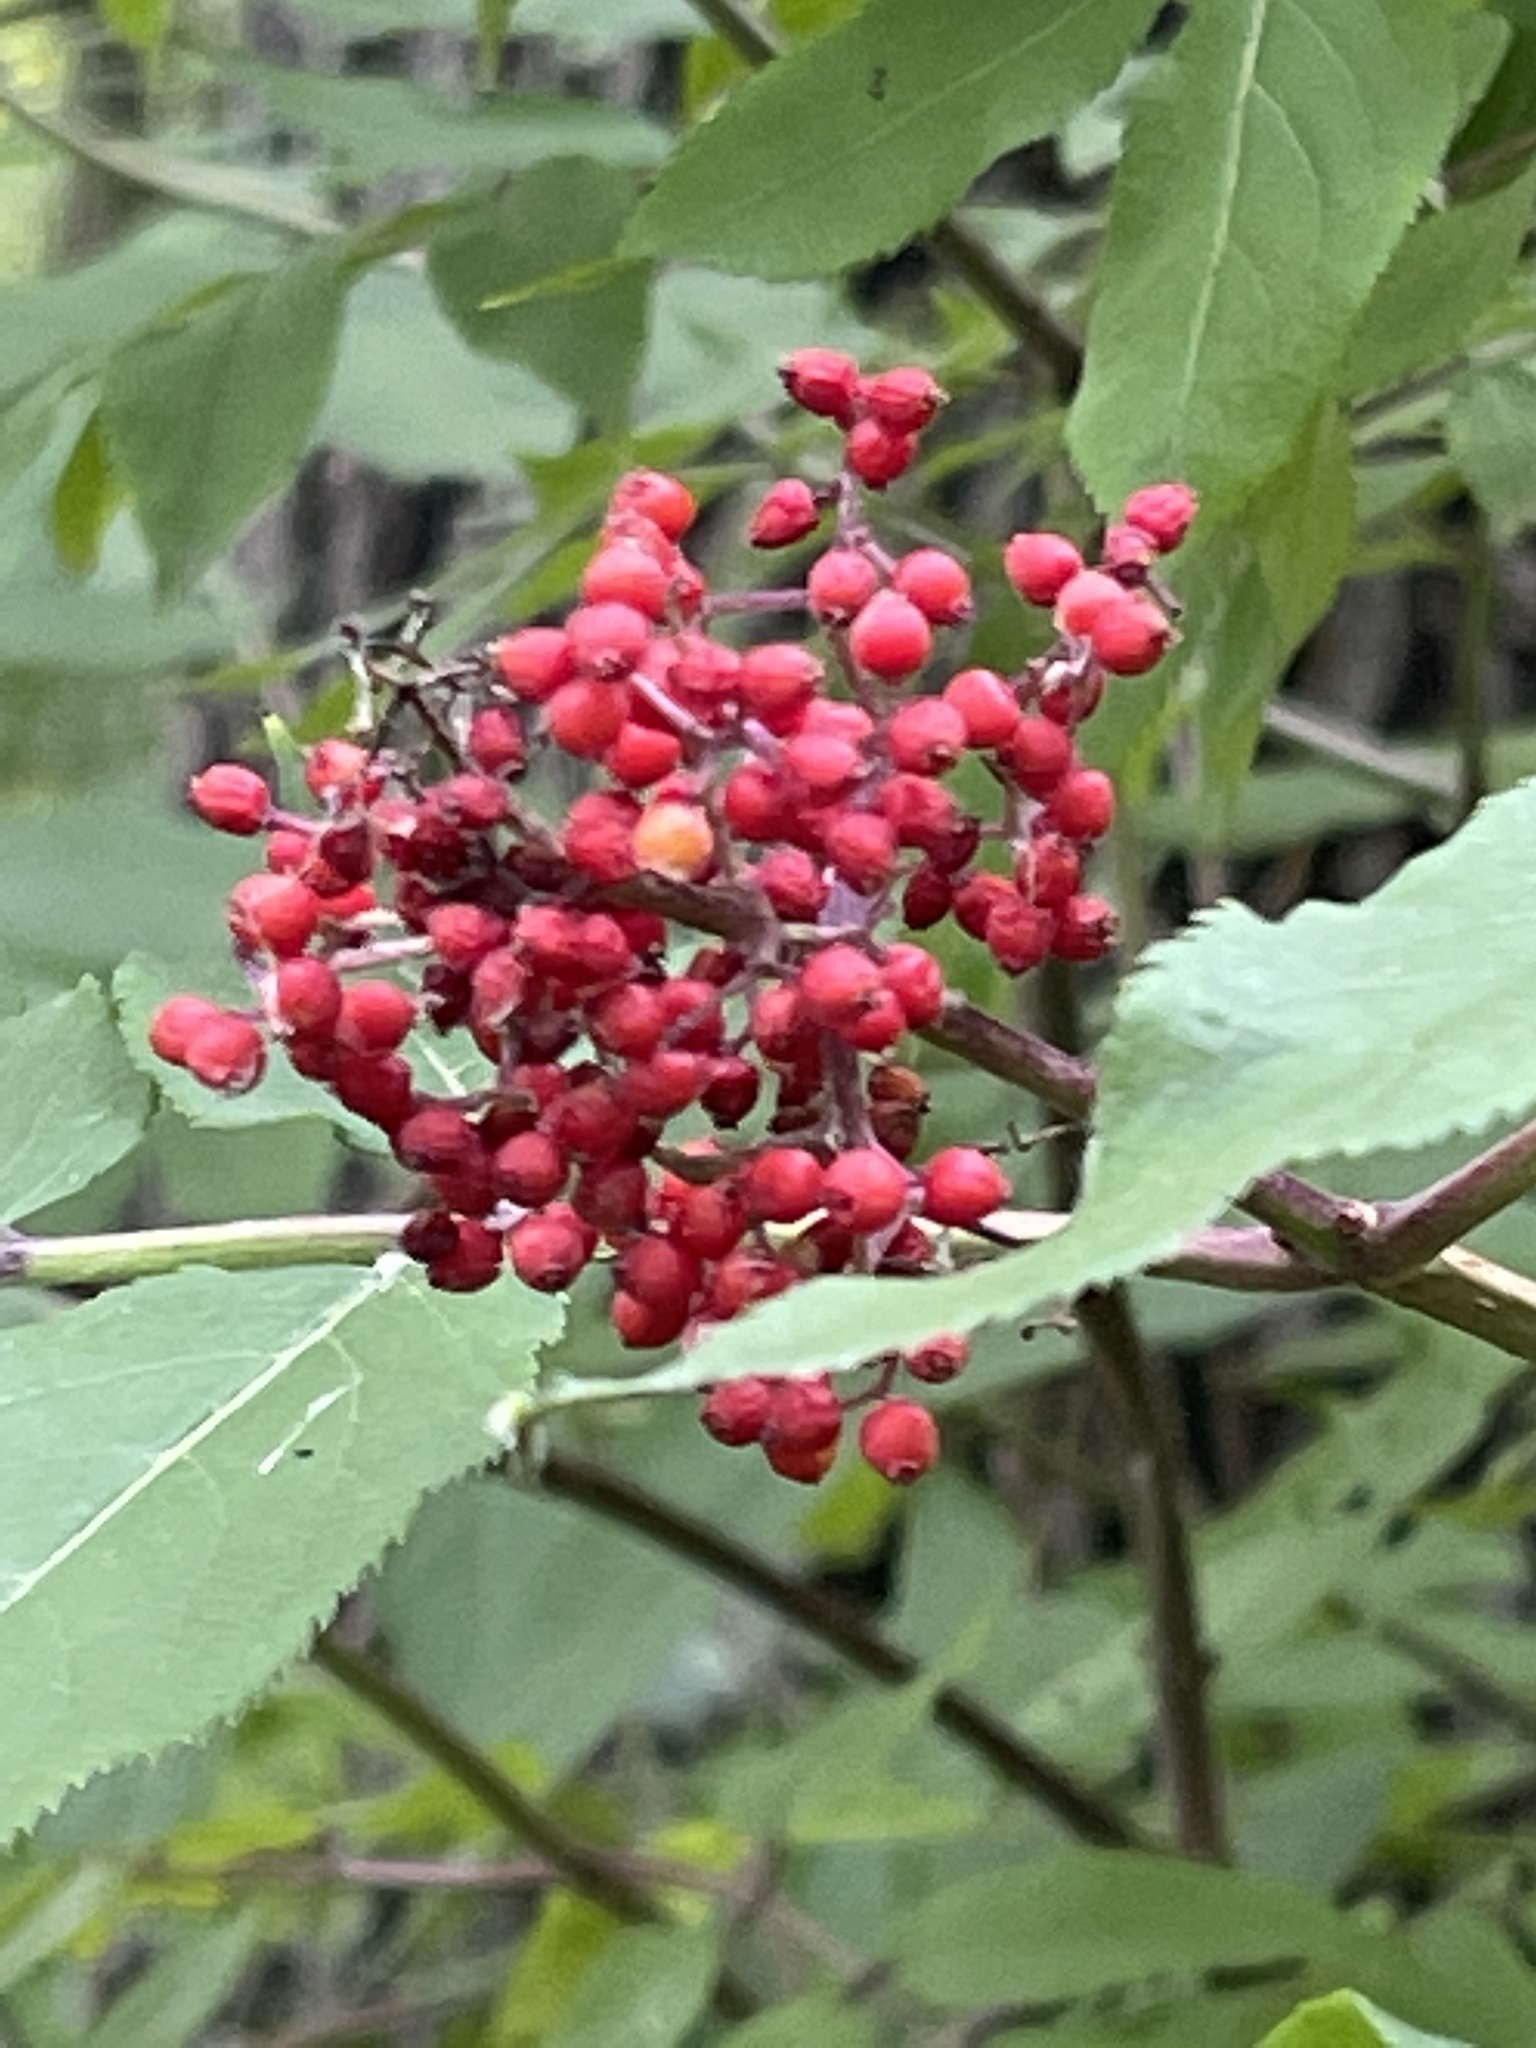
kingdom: Plantae
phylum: Tracheophyta
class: Magnoliopsida
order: Dipsacales
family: Viburnaceae
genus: Sambucus
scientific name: Sambucus racemosa
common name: Red-berried elder
